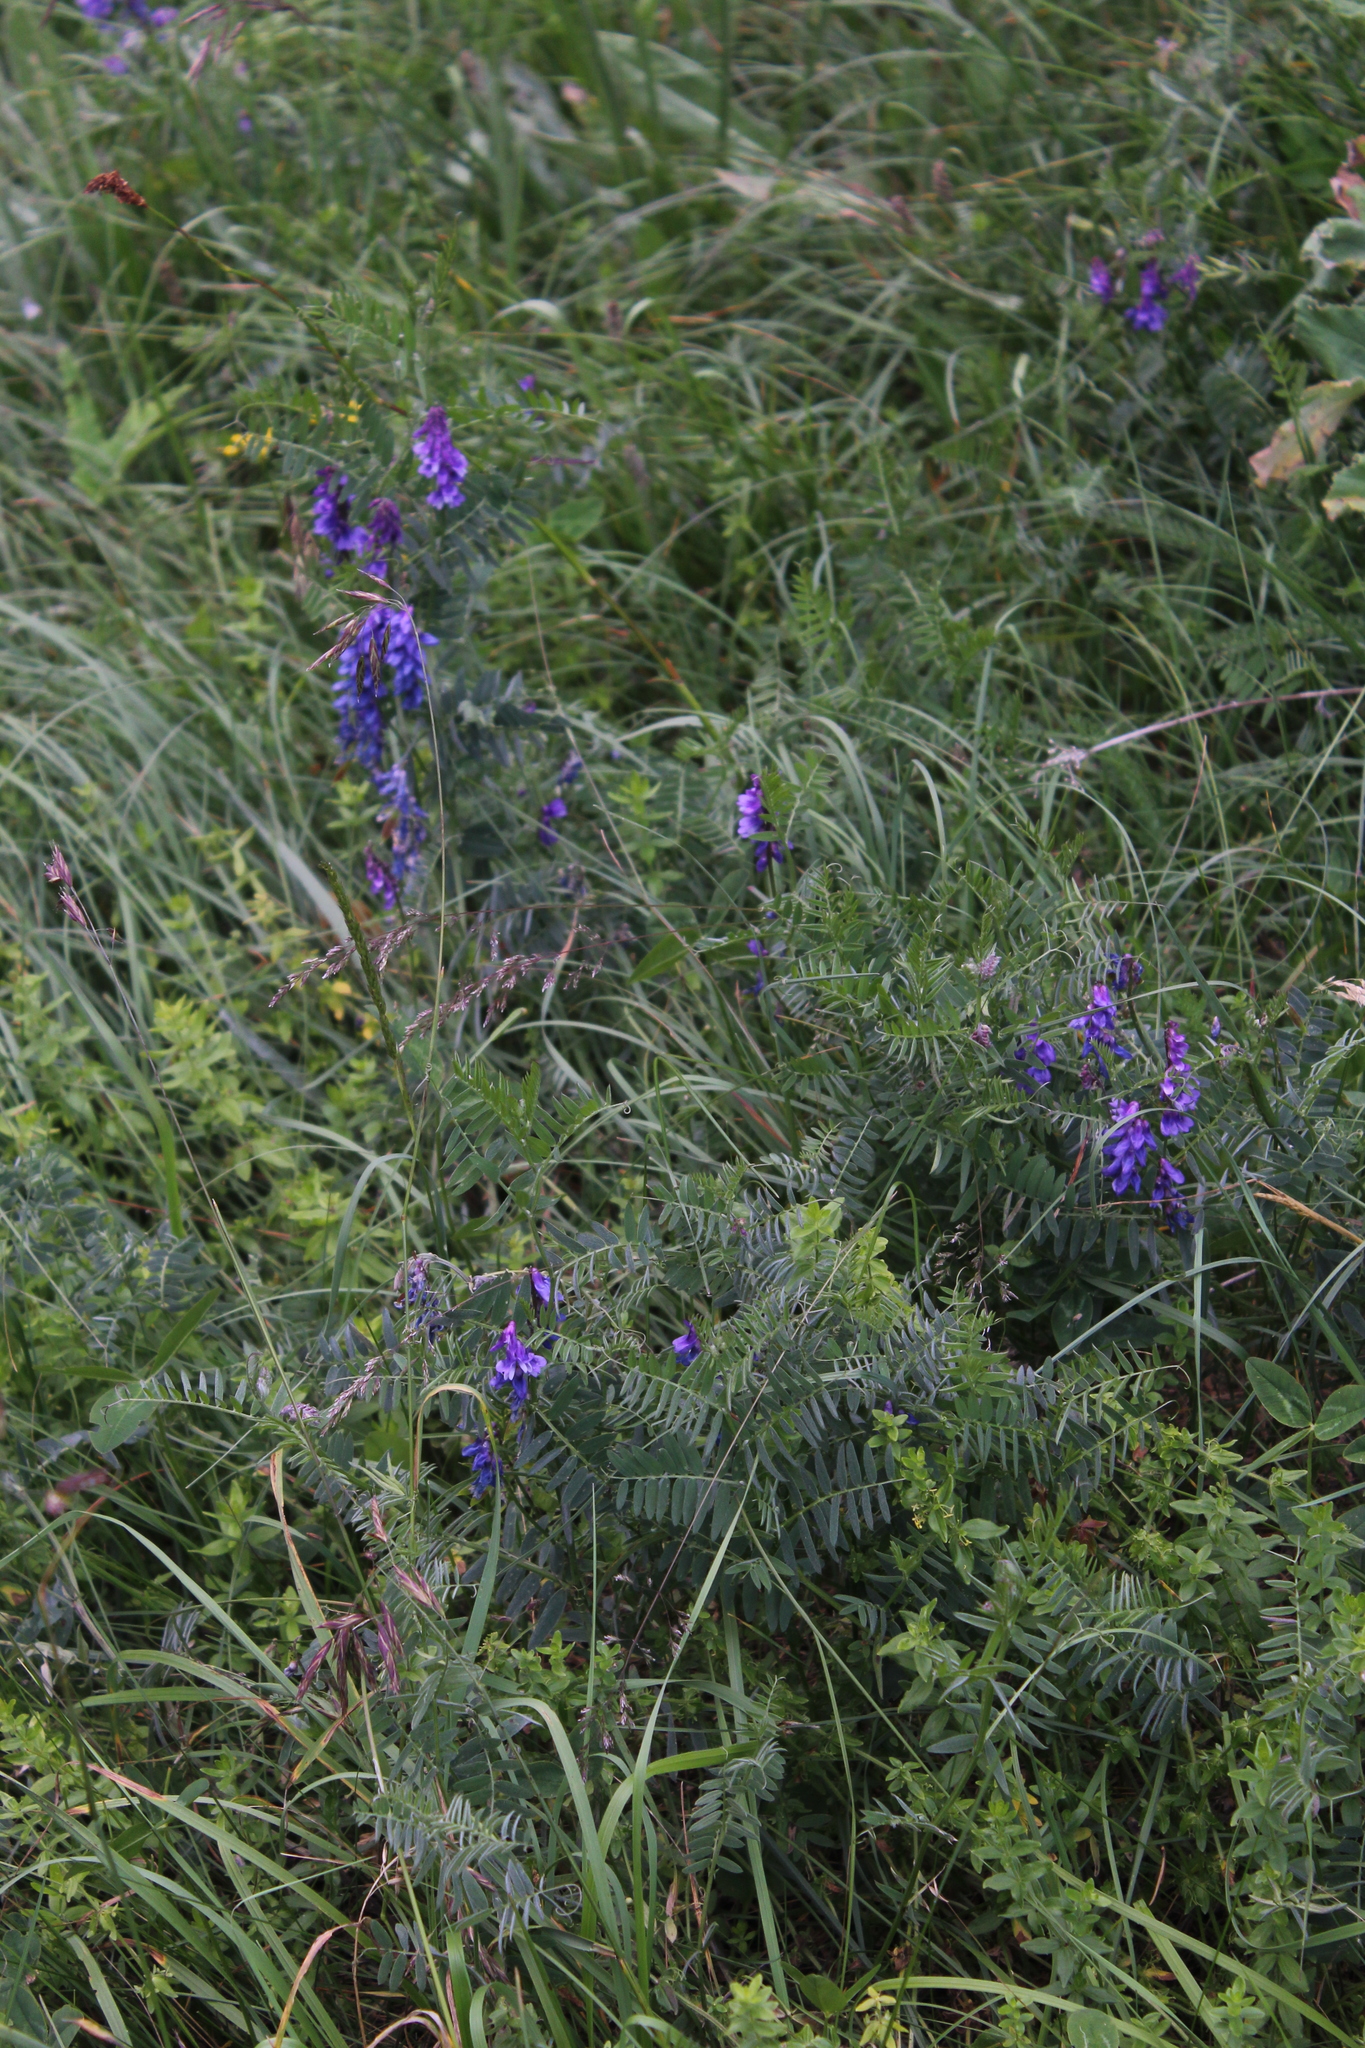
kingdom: Plantae
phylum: Tracheophyta
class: Magnoliopsida
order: Fabales
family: Fabaceae
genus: Vicia
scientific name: Vicia cracca
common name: Bird vetch
